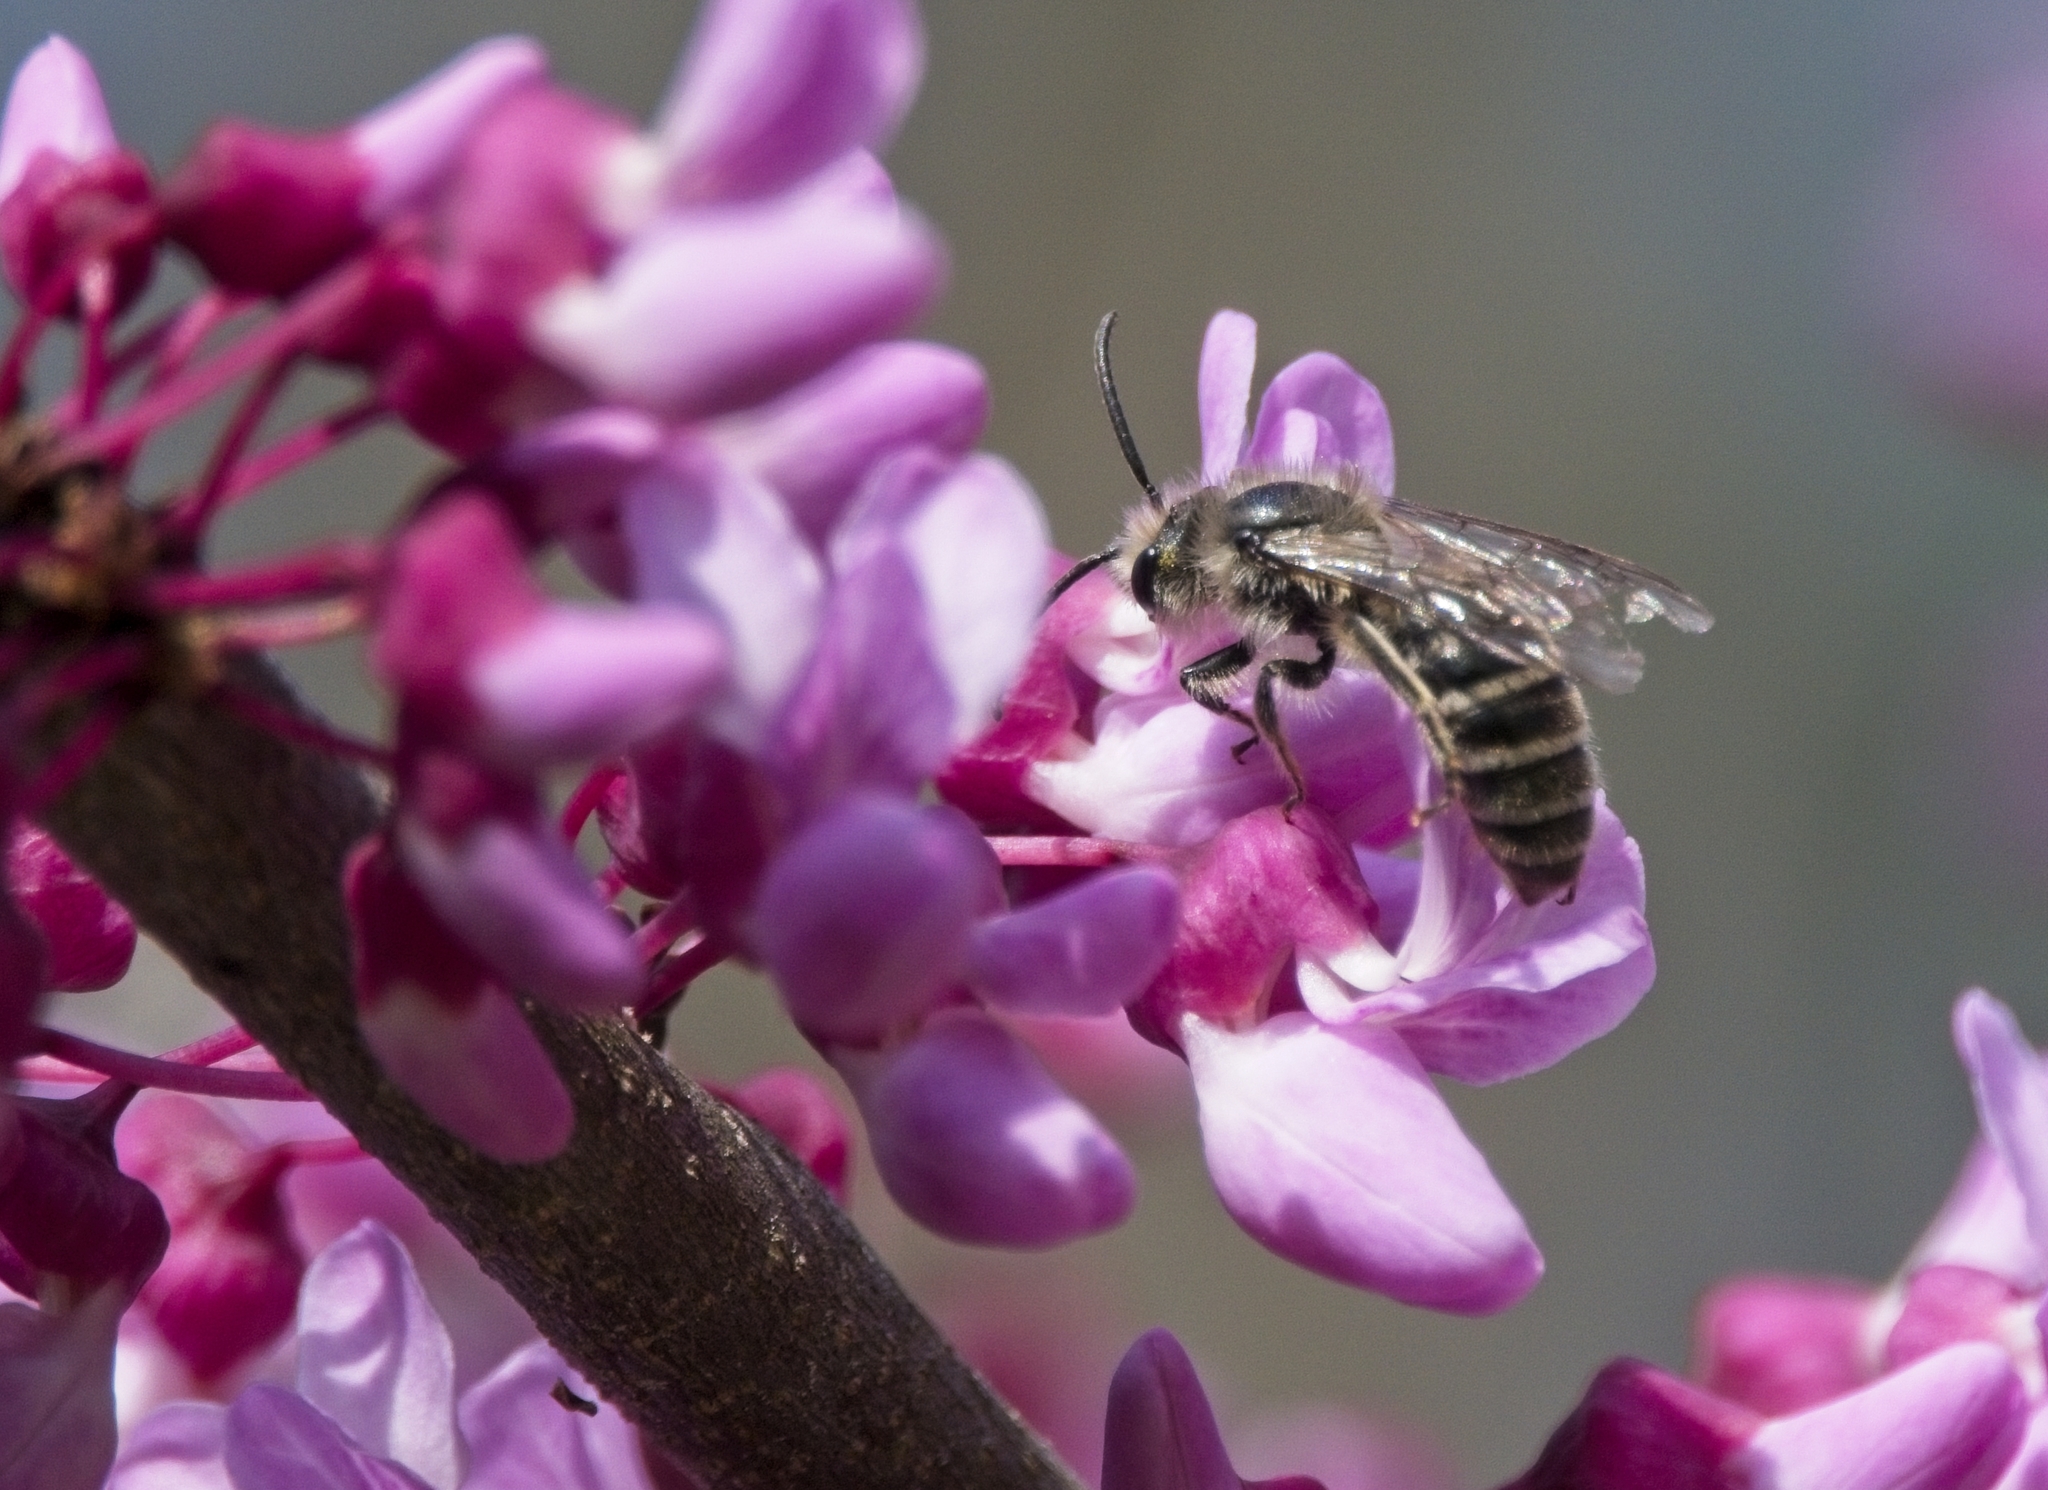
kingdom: Plantae
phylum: Tracheophyta
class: Magnoliopsida
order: Fabales
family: Fabaceae
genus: Cercis
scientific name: Cercis canadensis
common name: Eastern redbud
